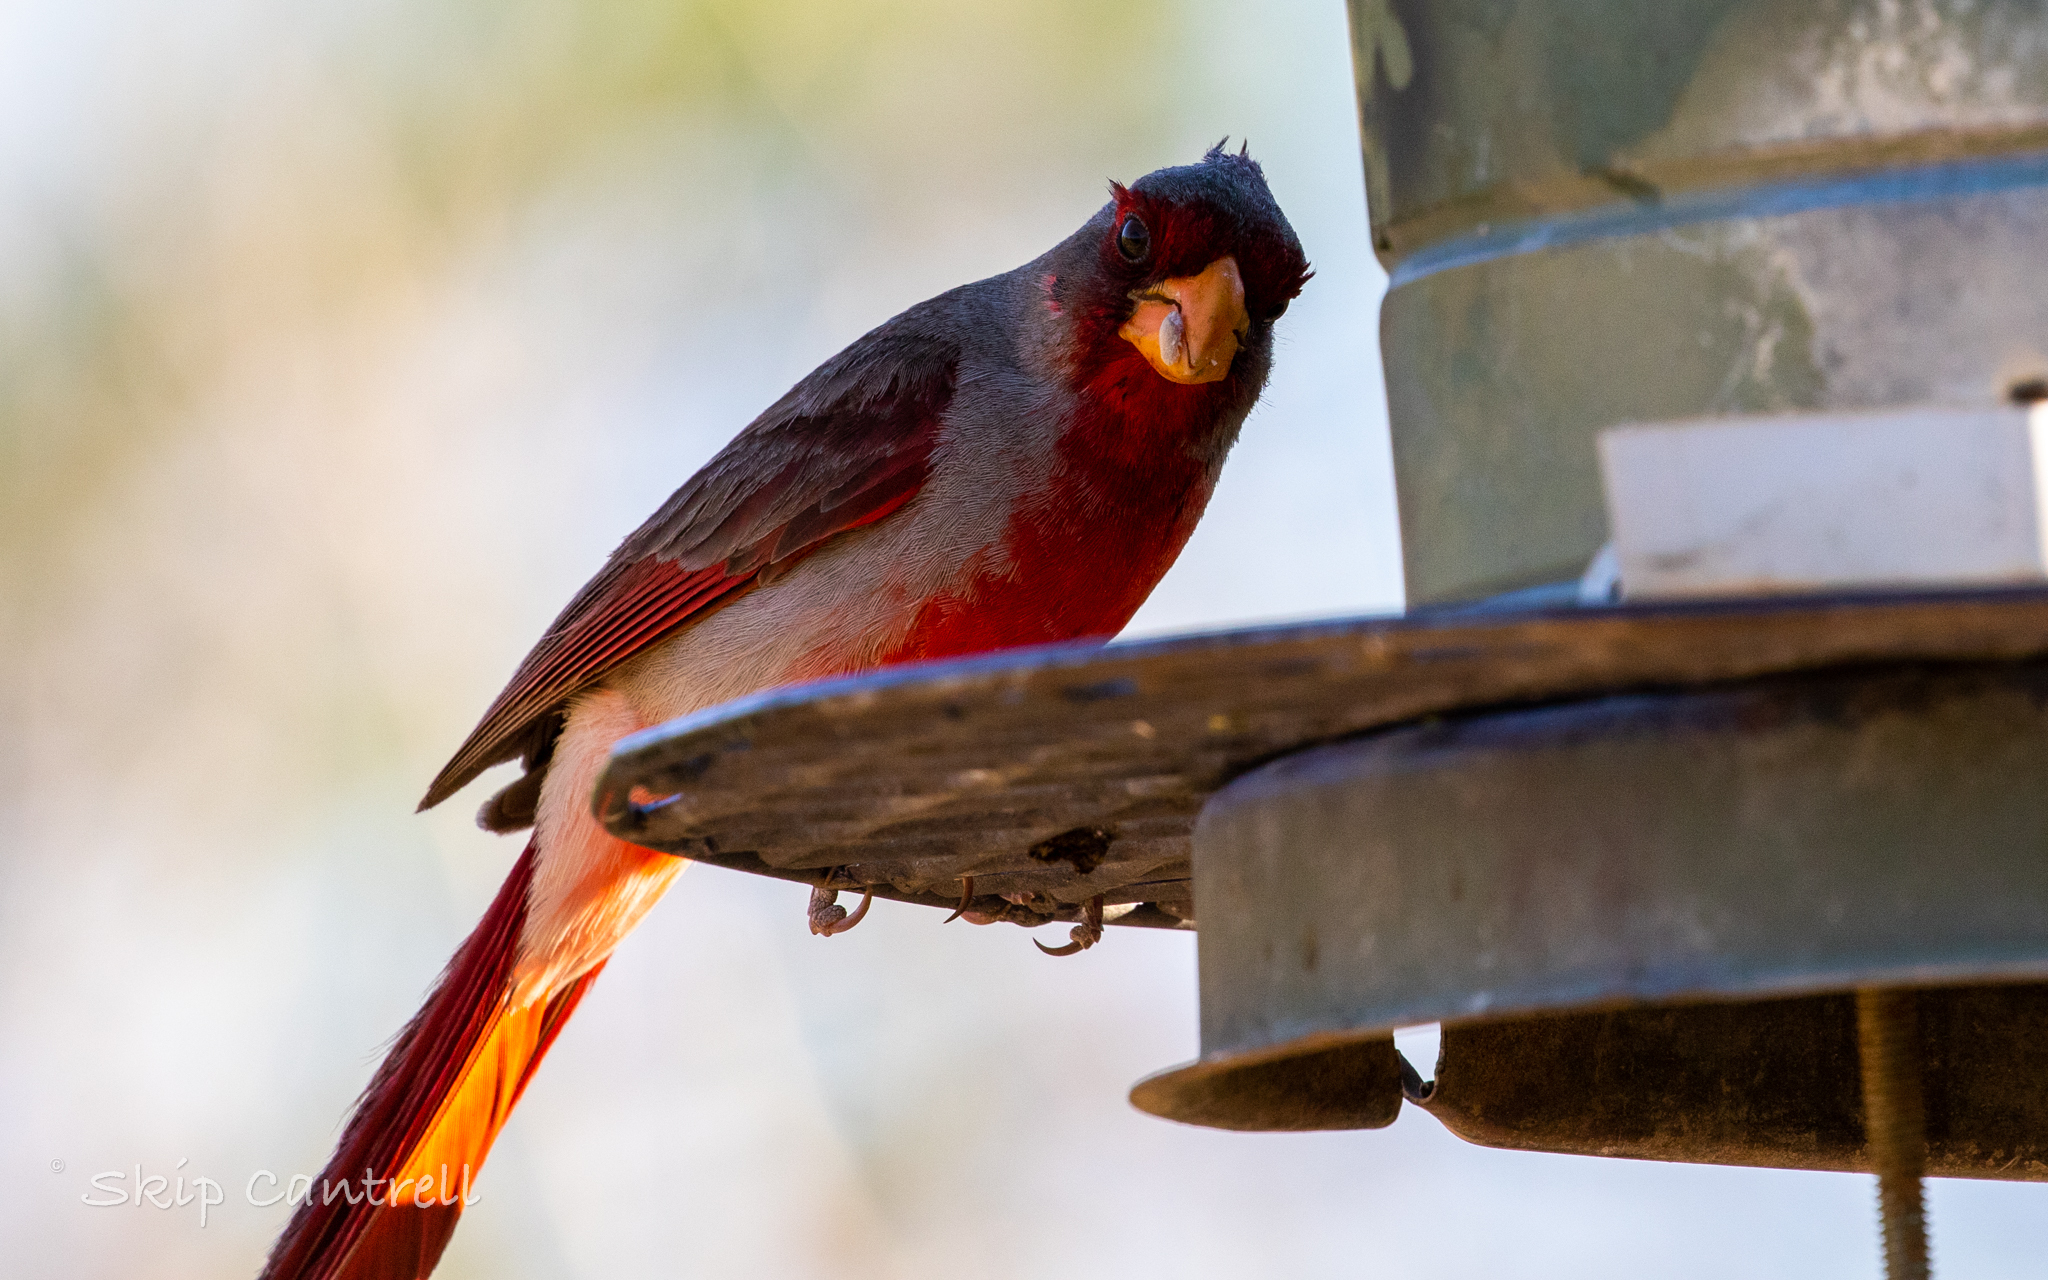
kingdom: Animalia
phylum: Chordata
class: Aves
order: Passeriformes
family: Cardinalidae
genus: Cardinalis
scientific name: Cardinalis sinuatus
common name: Pyrrhuloxia
